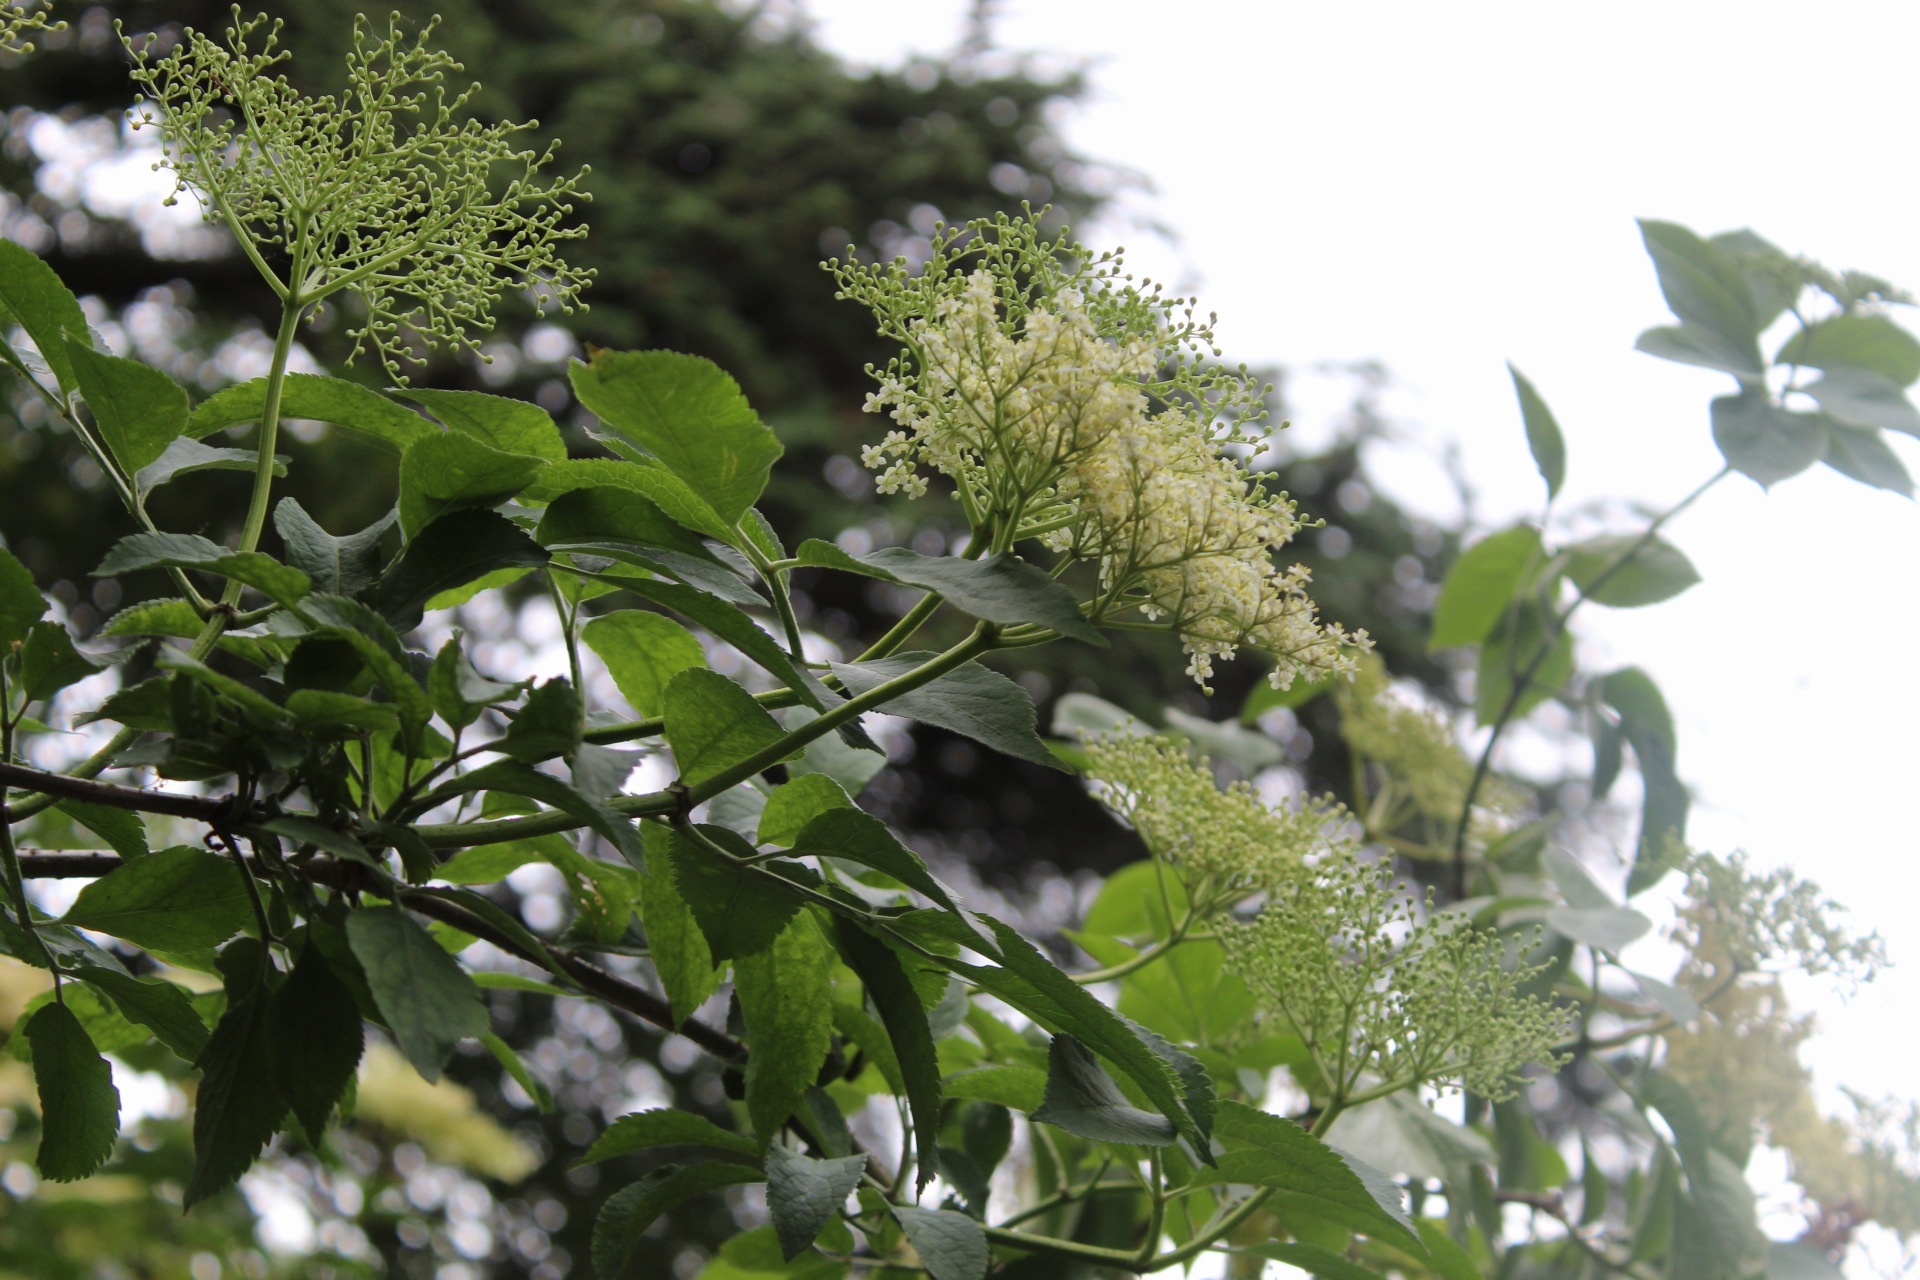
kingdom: Plantae
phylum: Tracheophyta
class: Magnoliopsida
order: Dipsacales
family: Viburnaceae
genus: Sambucus
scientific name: Sambucus nigra
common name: Elder
